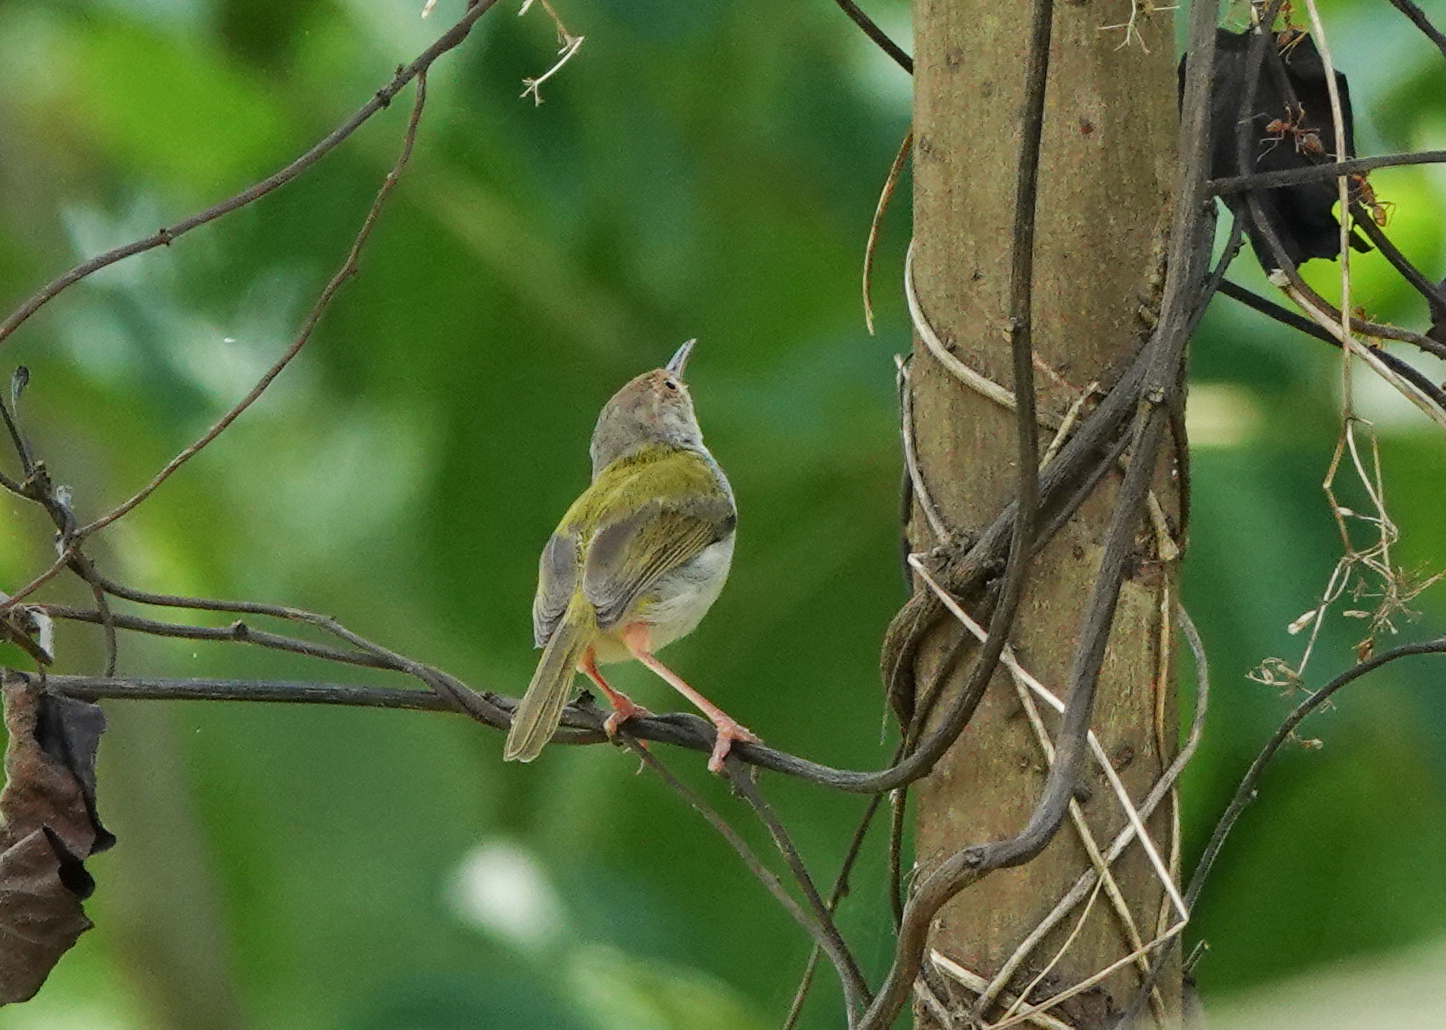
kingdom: Animalia
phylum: Chordata
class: Aves
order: Passeriformes
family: Cisticolidae
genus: Orthotomus
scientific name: Orthotomus sutorius
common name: Common tailorbird
